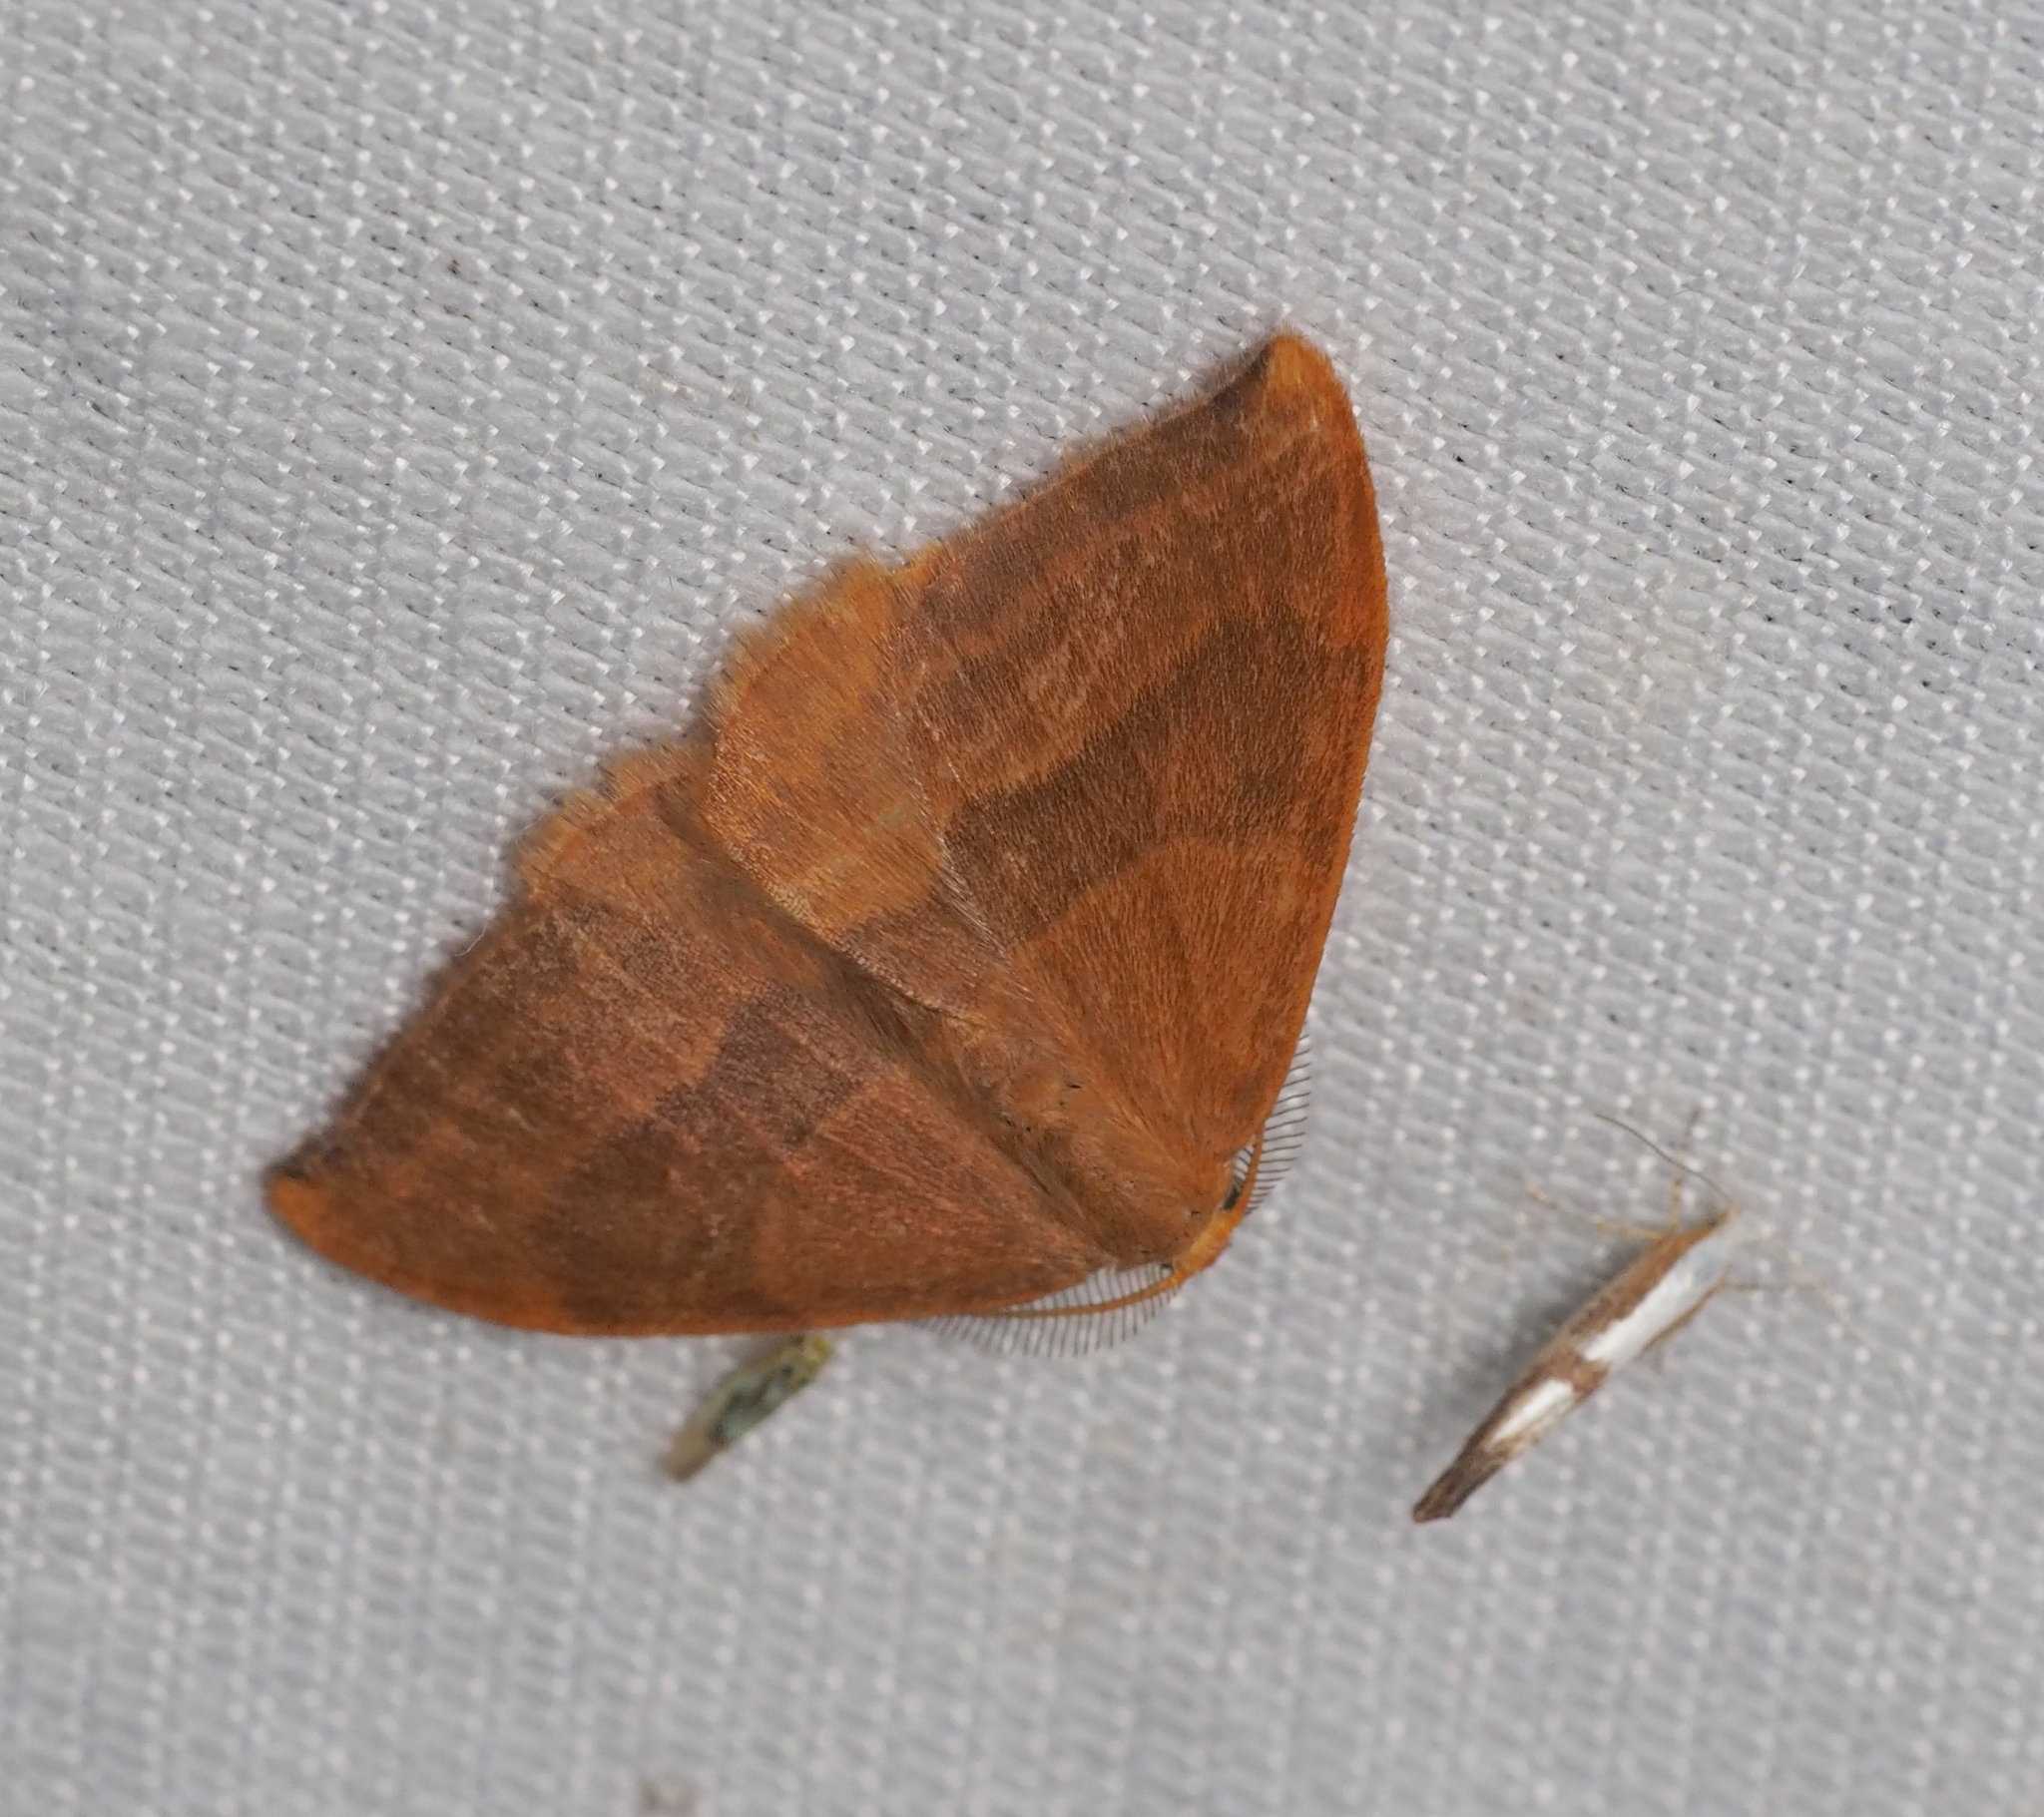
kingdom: Animalia
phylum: Arthropoda
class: Insecta
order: Lepidoptera
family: Drepanidae
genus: Watsonalla
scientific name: Watsonalla cultraria
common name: Barred hook-tip
